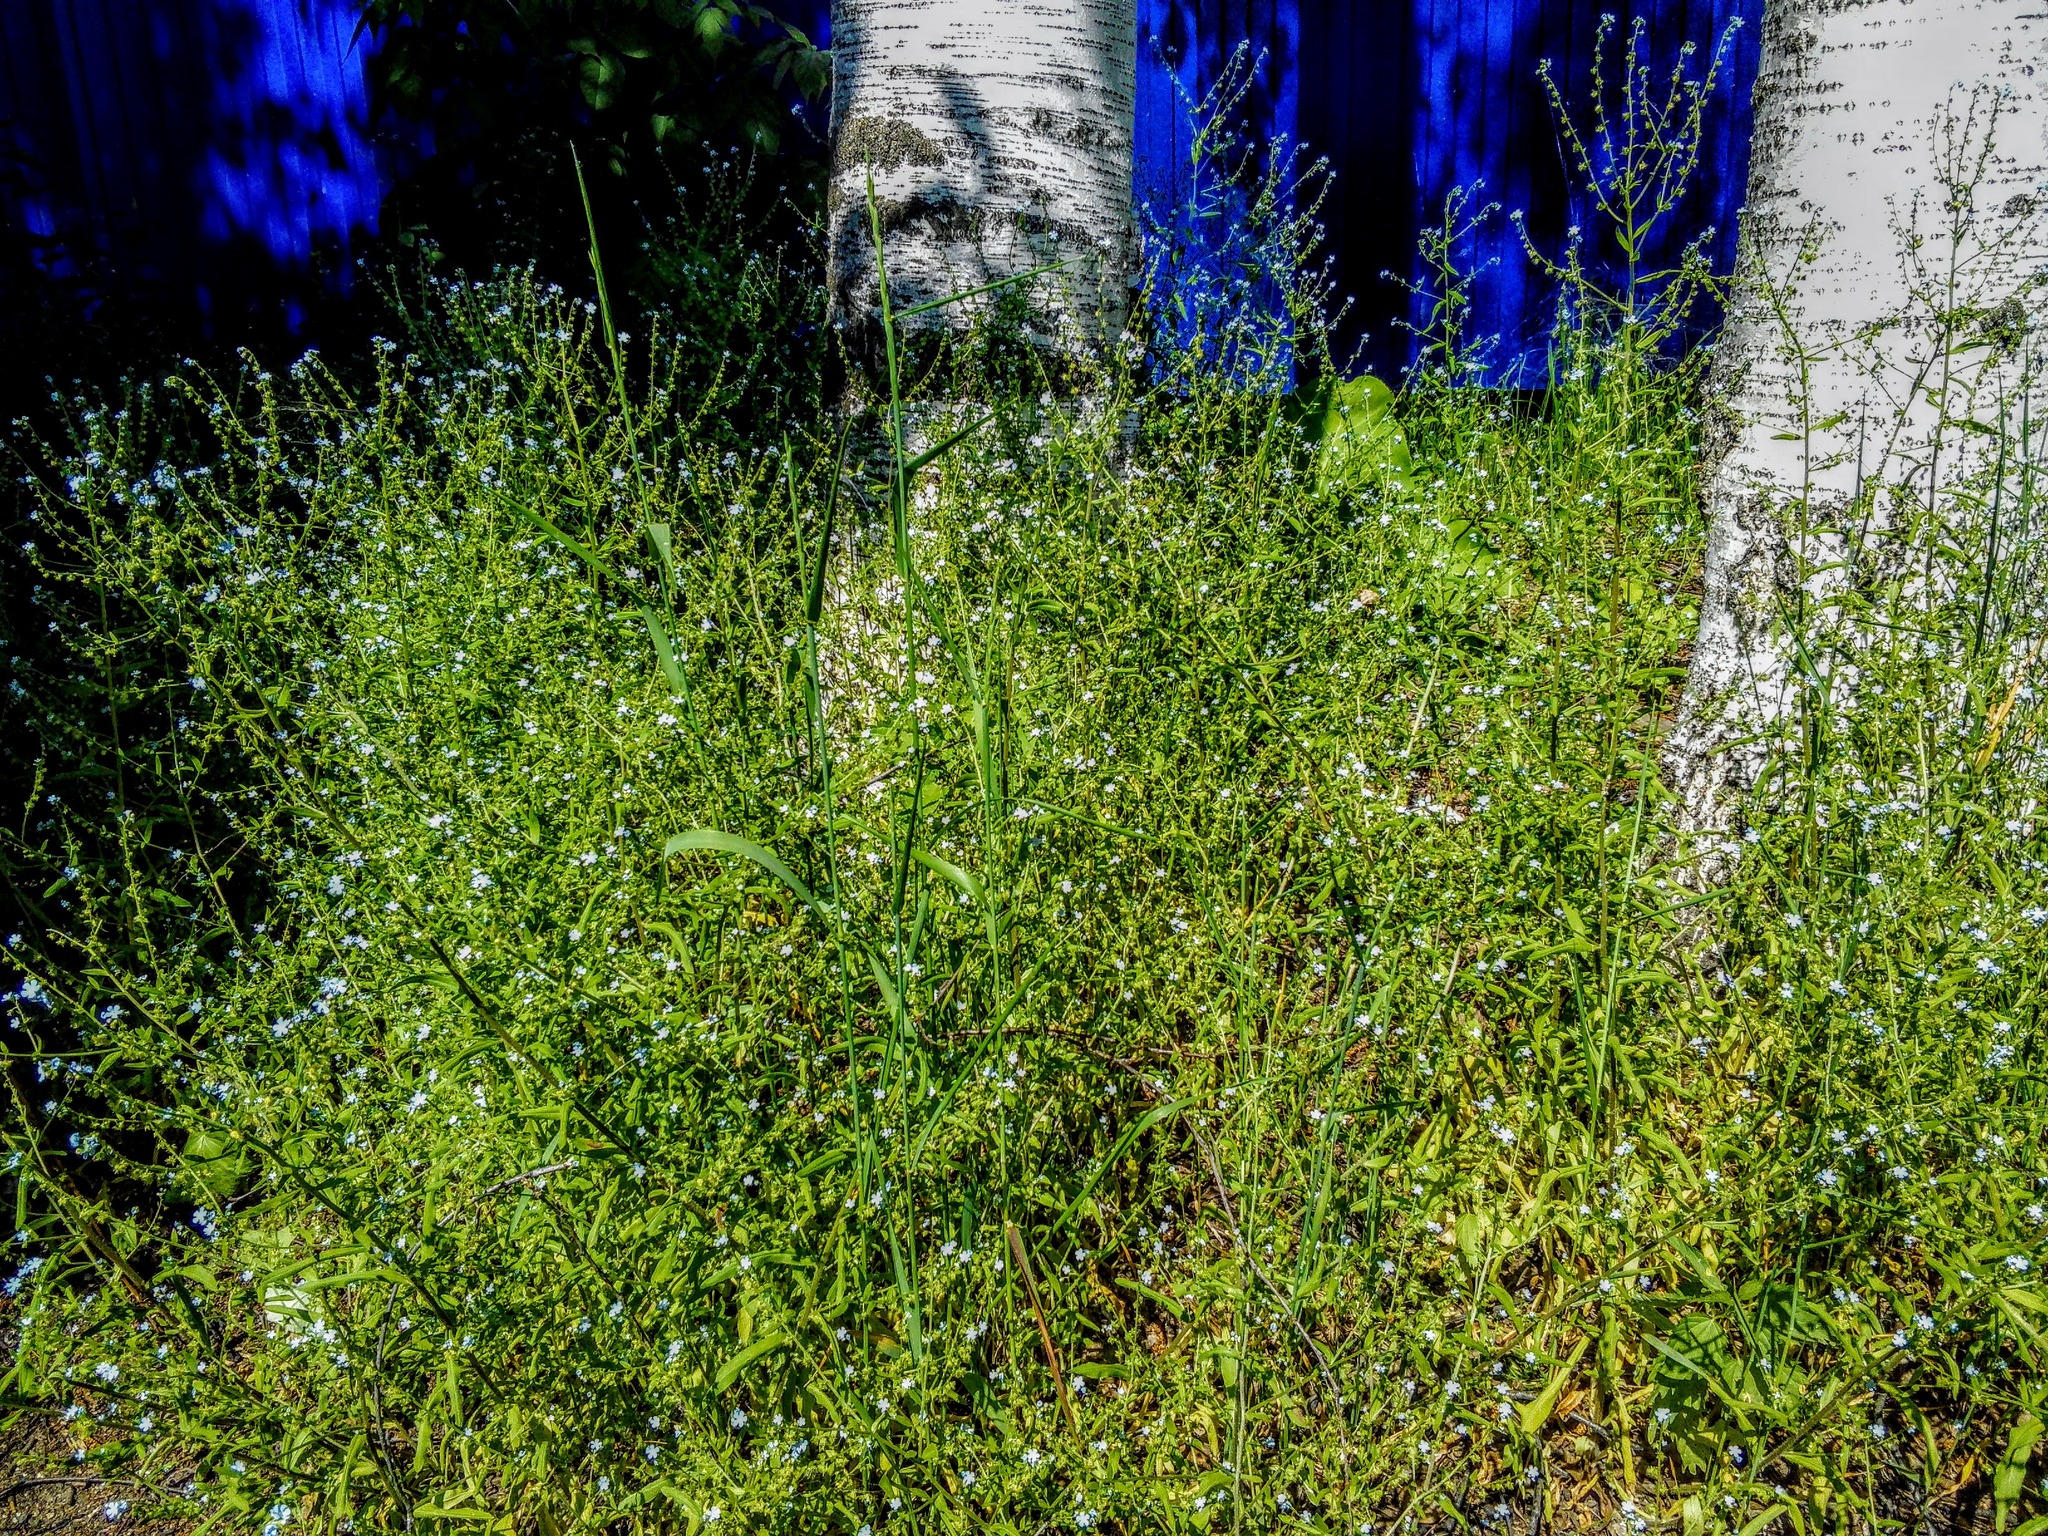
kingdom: Plantae
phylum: Tracheophyta
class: Magnoliopsida
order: Boraginales
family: Boraginaceae
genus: Lappula
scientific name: Lappula squarrosa
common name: European stickseed
